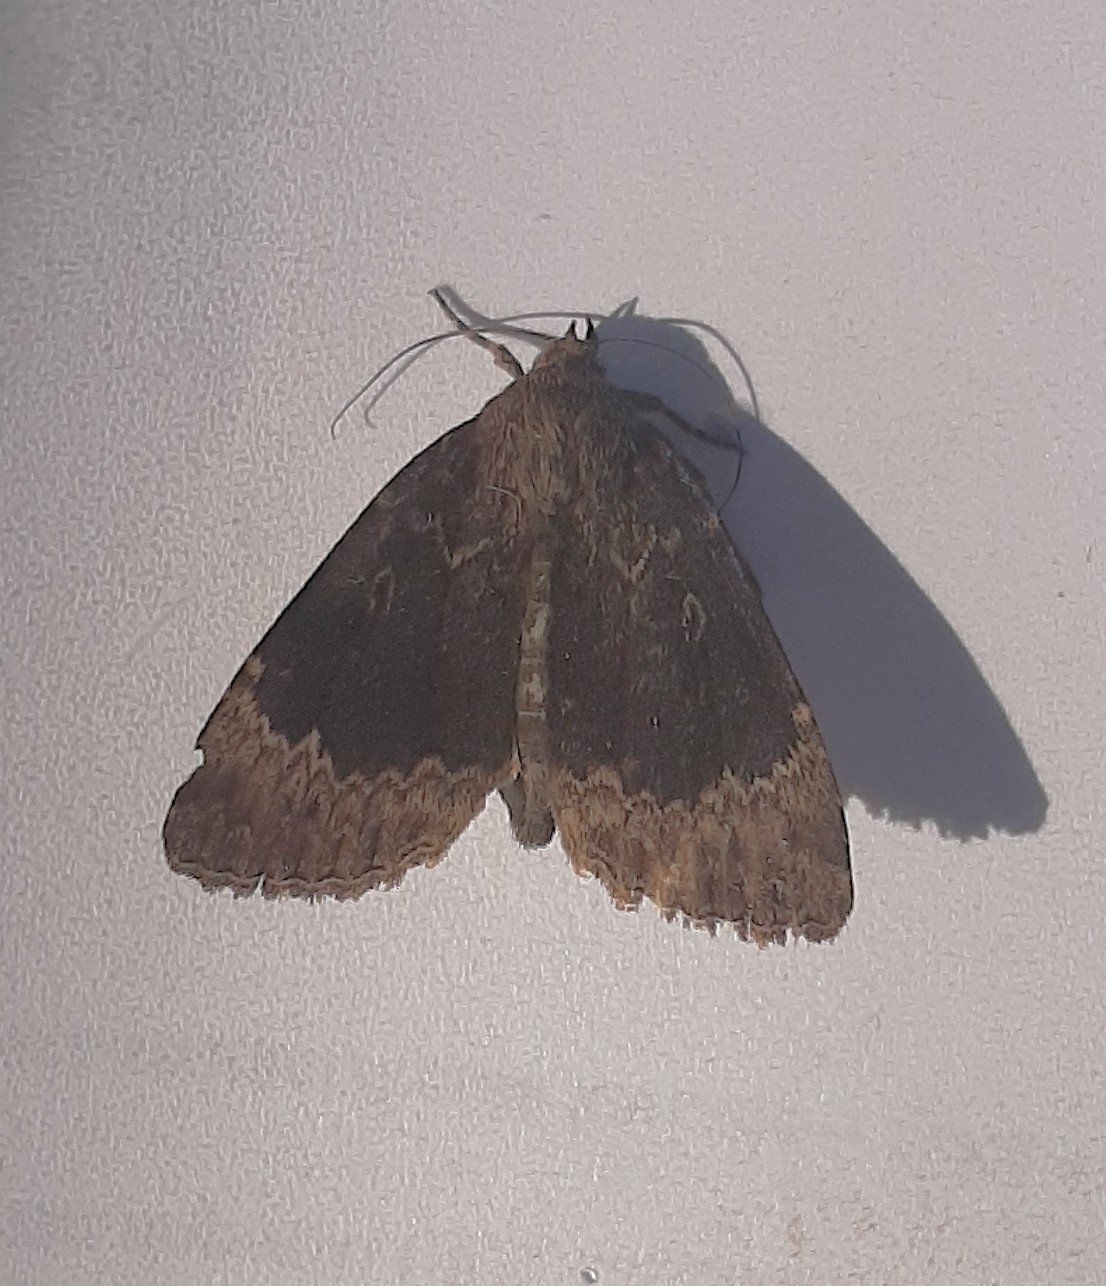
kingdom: Animalia
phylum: Arthropoda
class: Insecta
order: Lepidoptera
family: Noctuidae
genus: Amphipyra
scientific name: Amphipyra perflua
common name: Larger pale-tipped black moth
